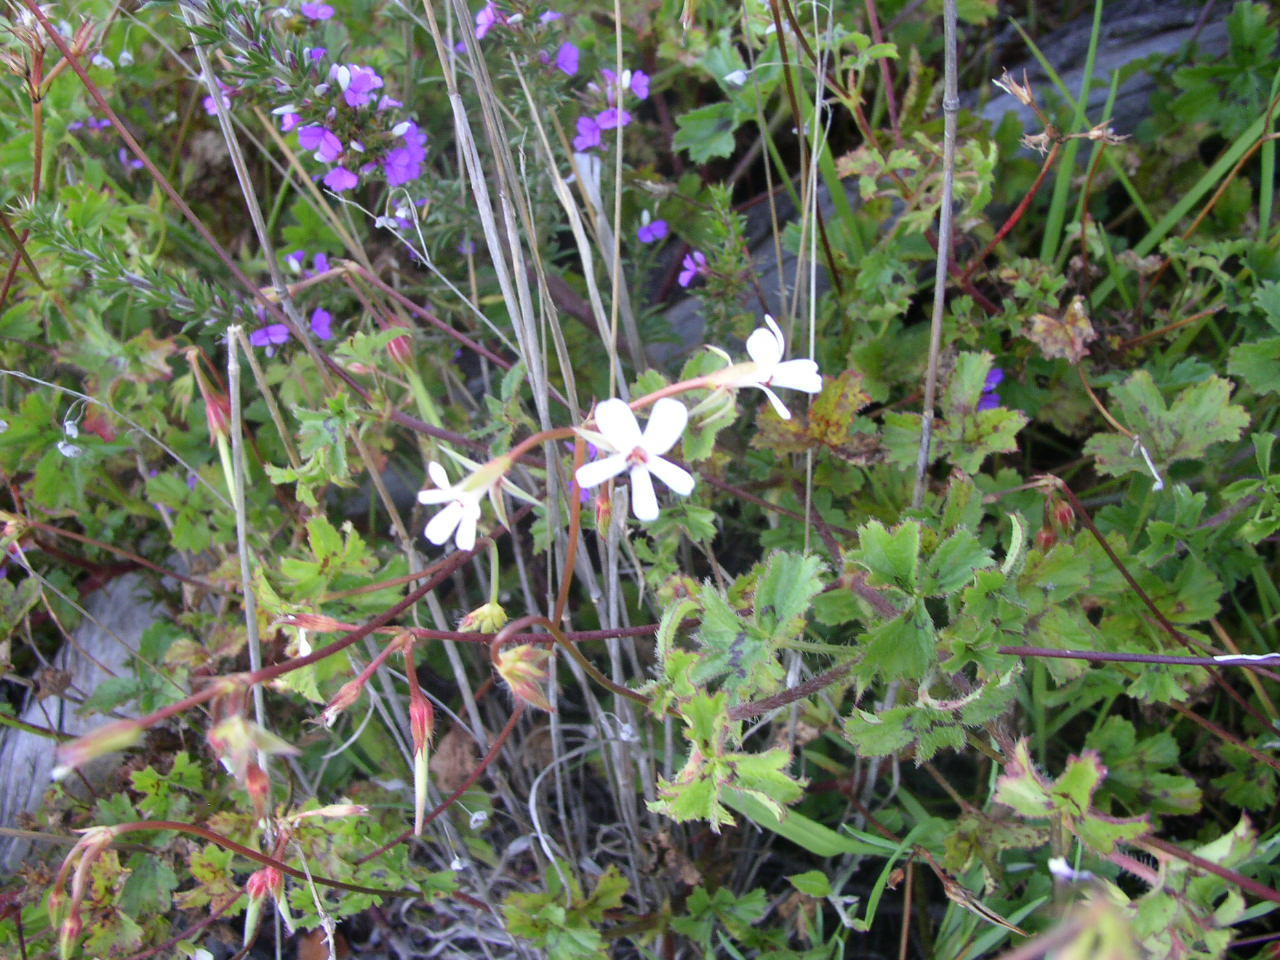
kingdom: Plantae
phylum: Tracheophyta
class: Magnoliopsida
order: Geraniales
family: Geraniaceae
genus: Pelargonium
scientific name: Pelargonium elongatum
